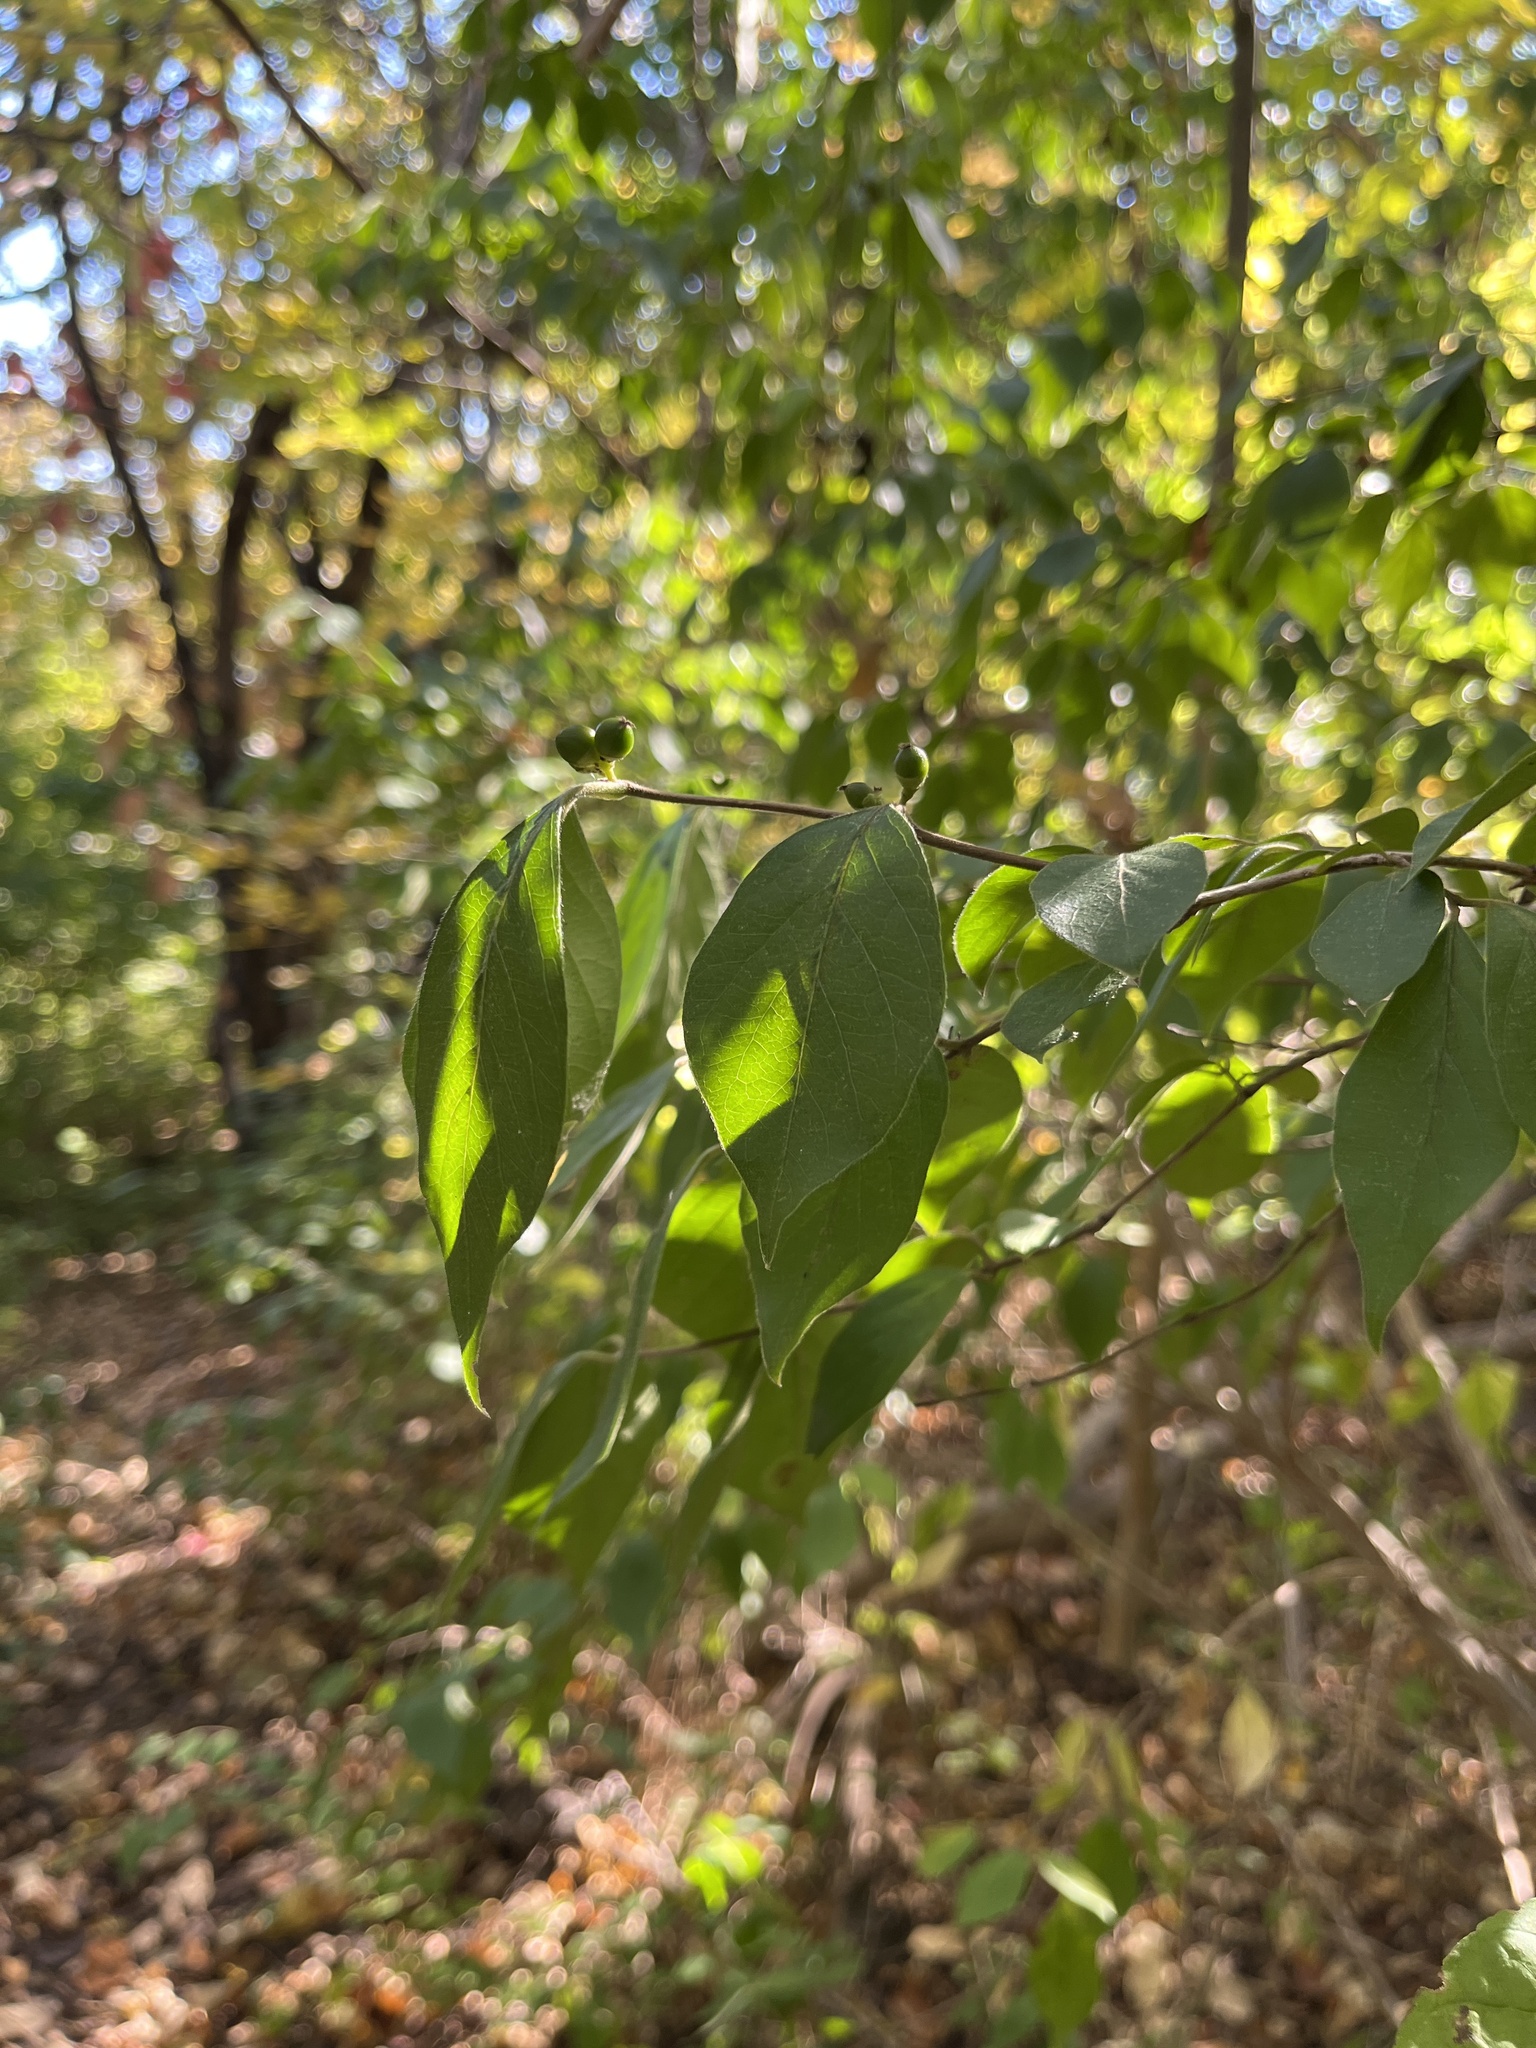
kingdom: Plantae
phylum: Tracheophyta
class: Magnoliopsida
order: Dipsacales
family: Caprifoliaceae
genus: Lonicera
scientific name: Lonicera maackii
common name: Amur honeysuckle
